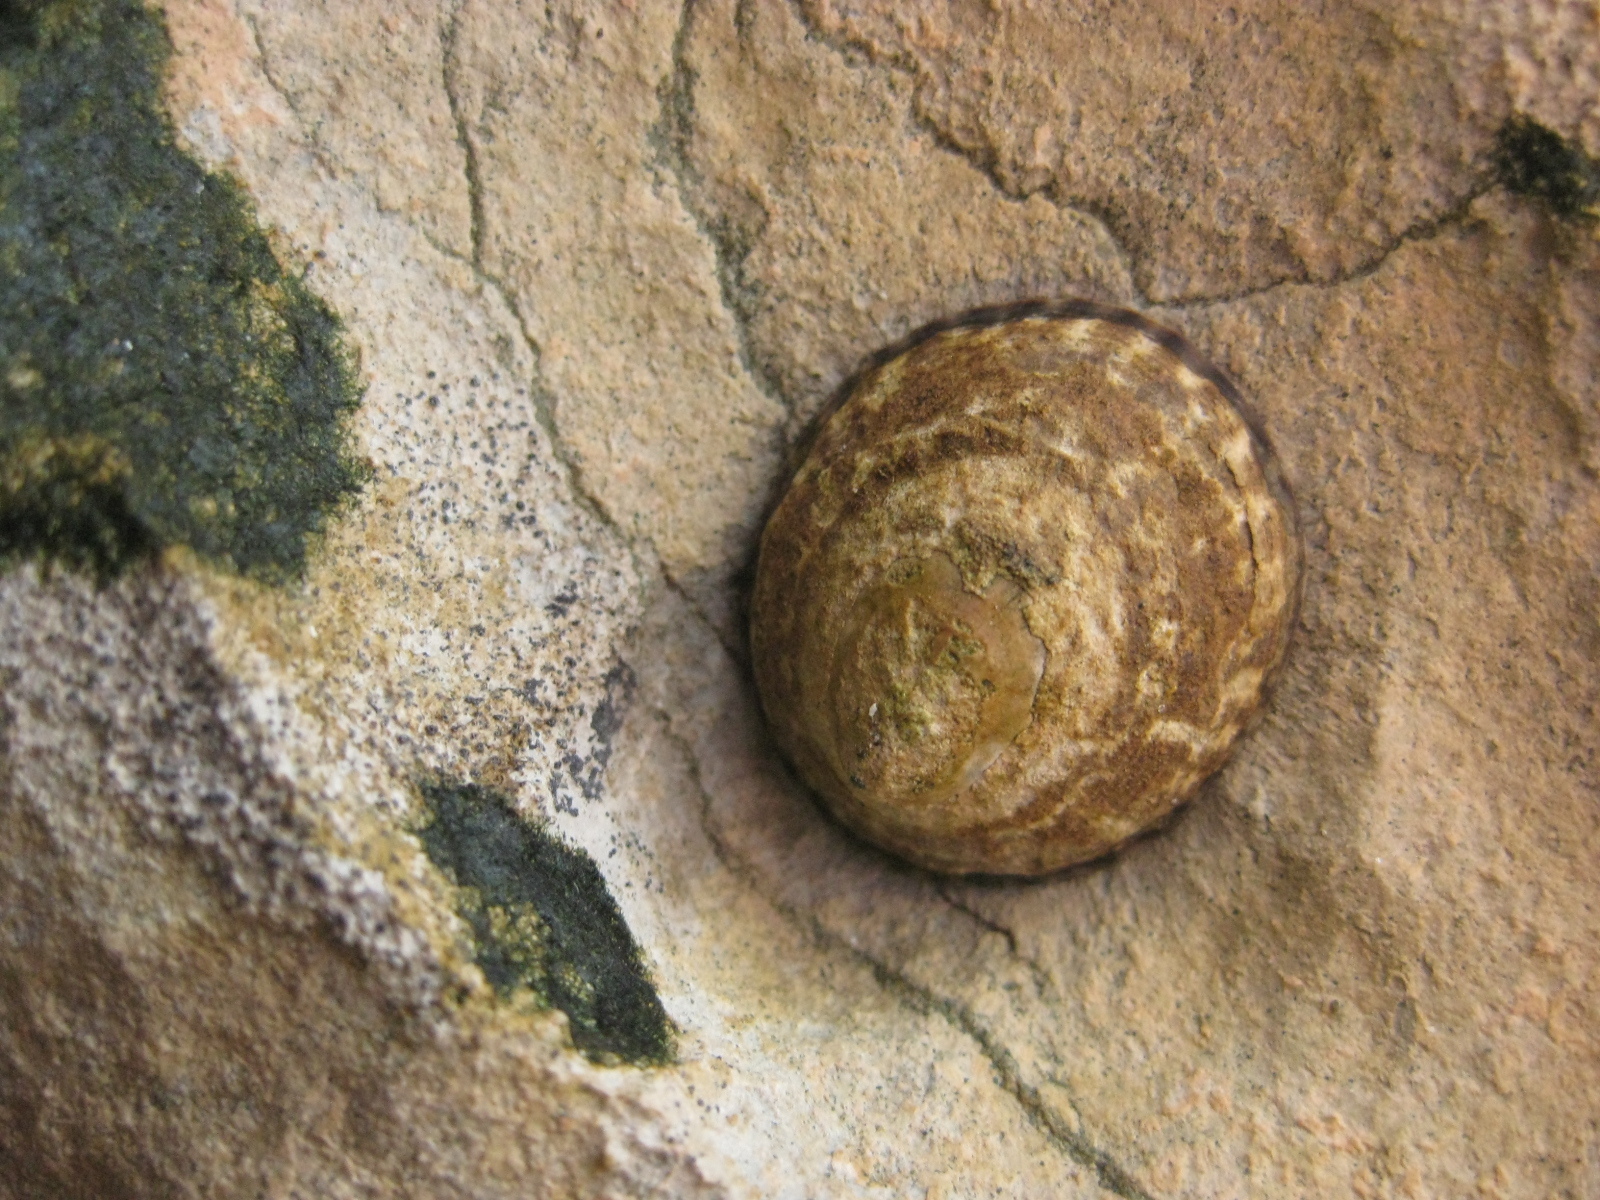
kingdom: Animalia
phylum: Mollusca
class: Gastropoda
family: Lottiidae
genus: Notoacmea
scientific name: Notoacmea pileopsis
